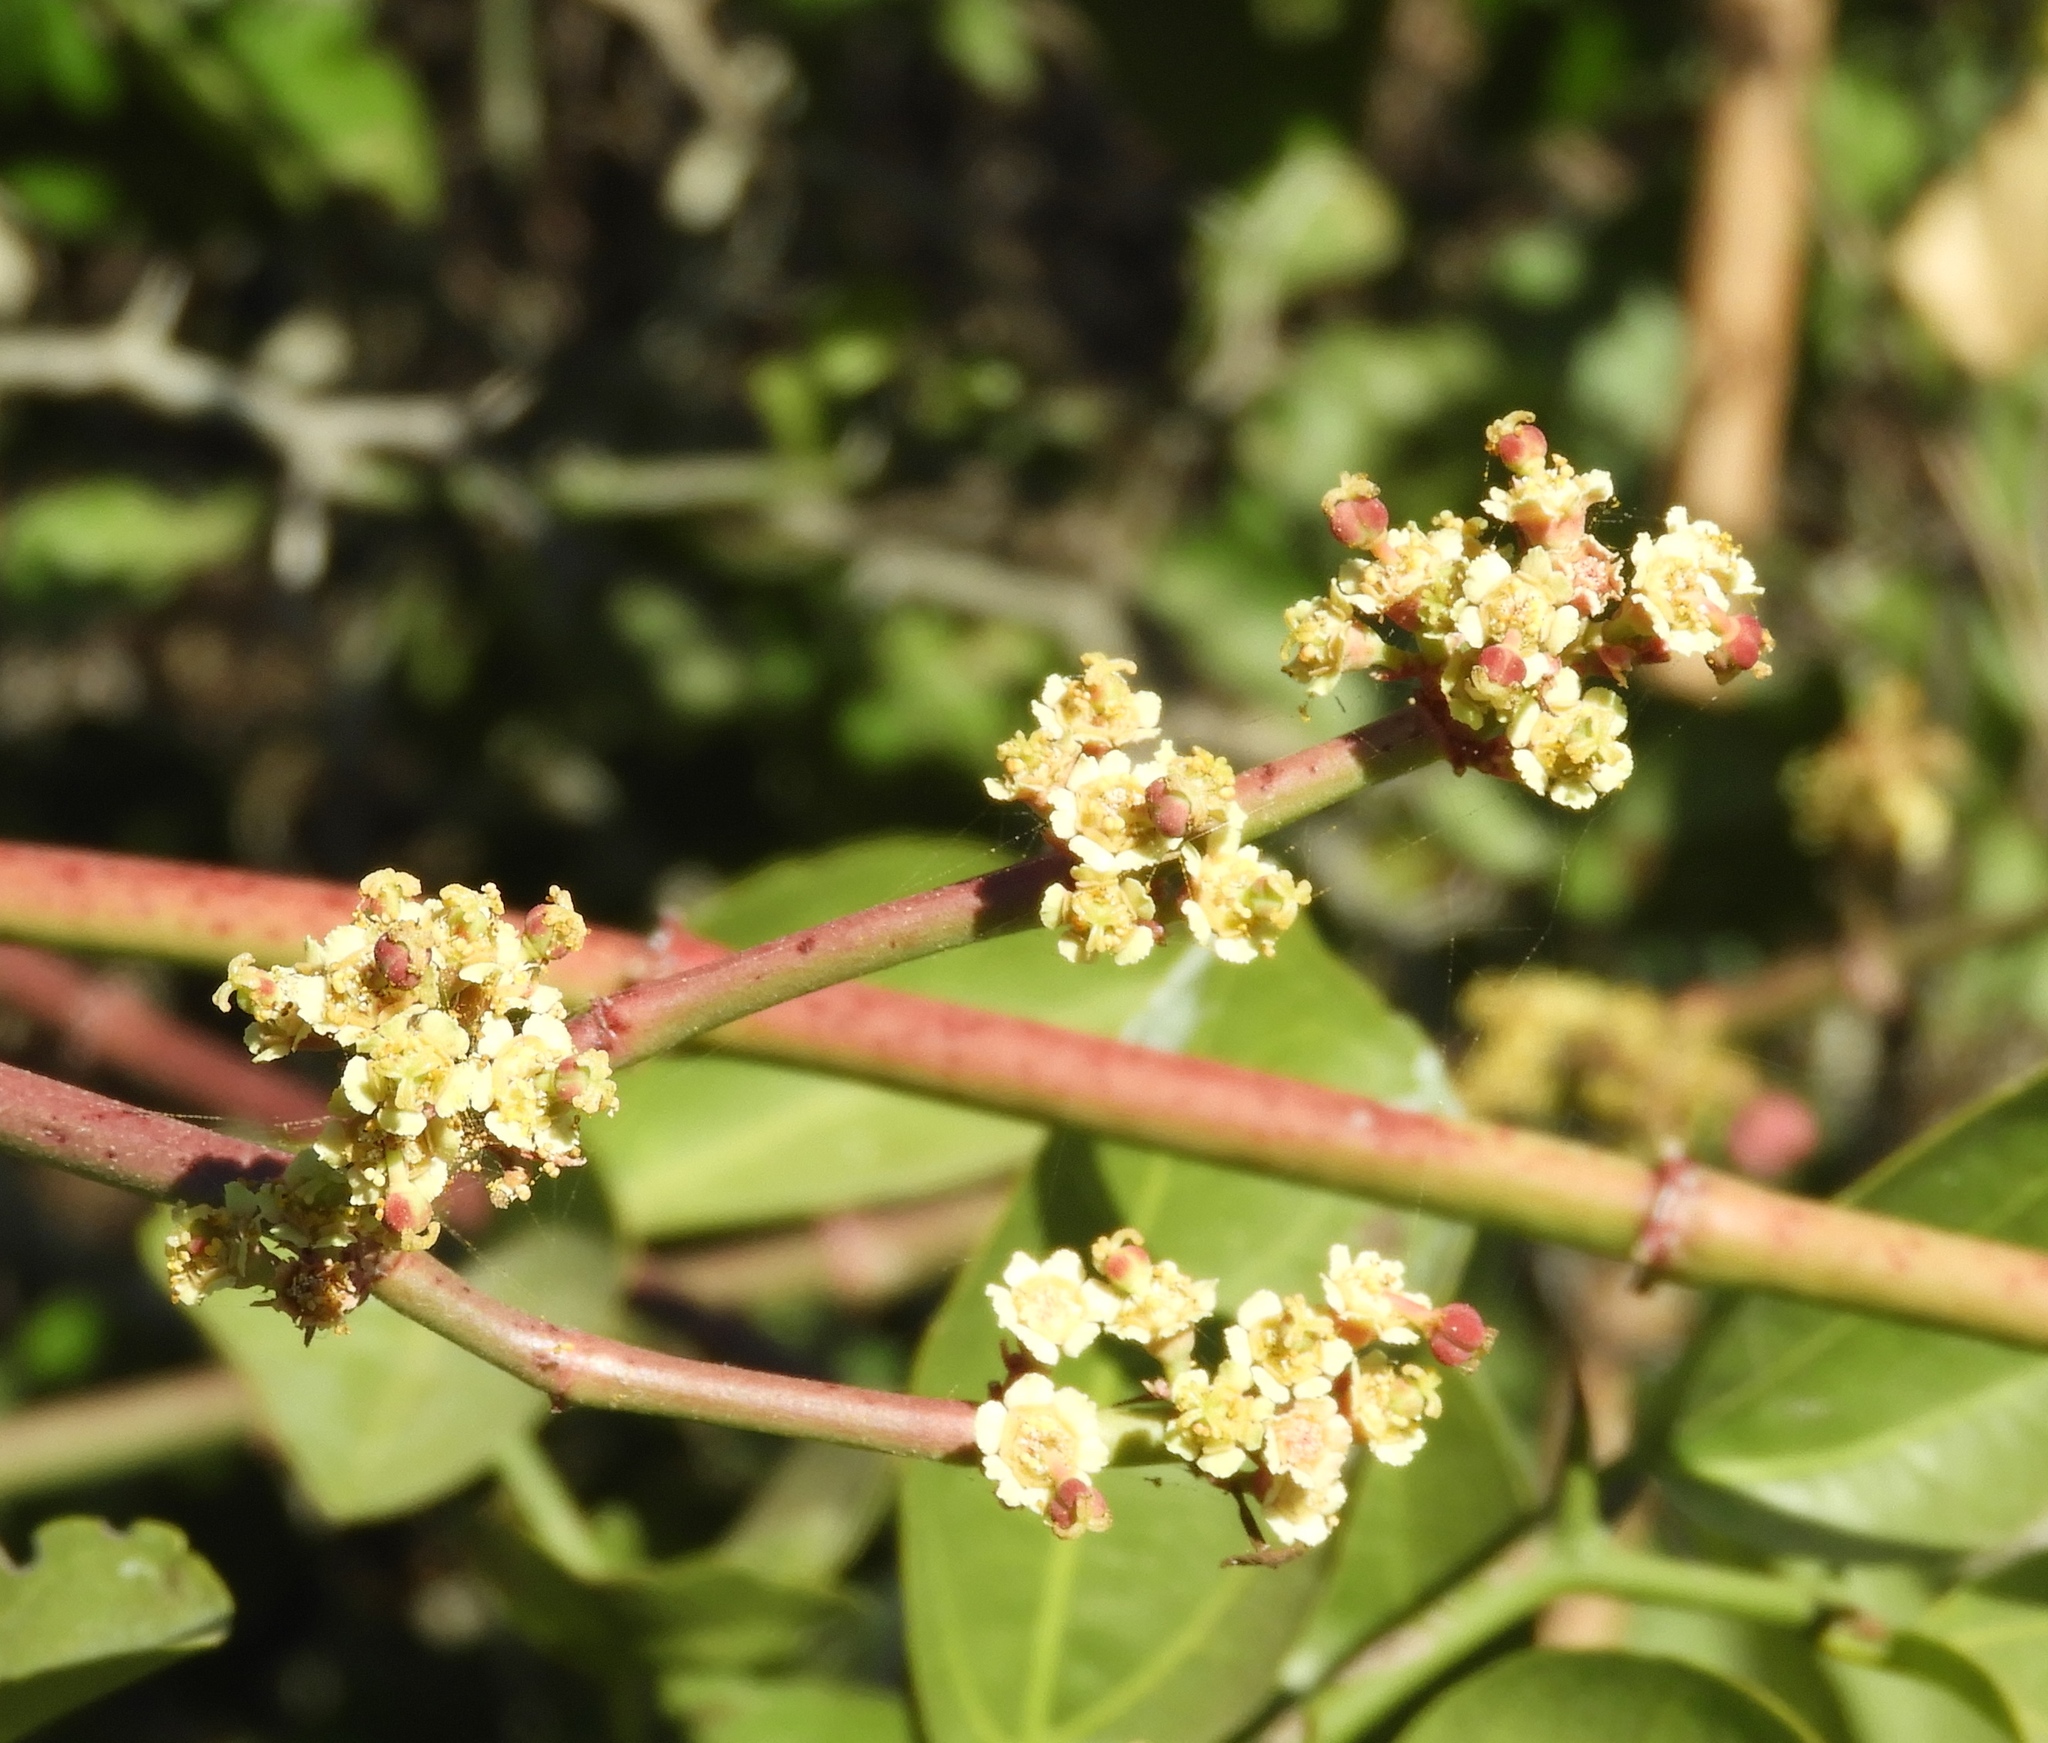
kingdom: Plantae
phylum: Tracheophyta
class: Magnoliopsida
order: Malpighiales
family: Euphorbiaceae
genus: Euphorbia
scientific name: Euphorbia colletioides
